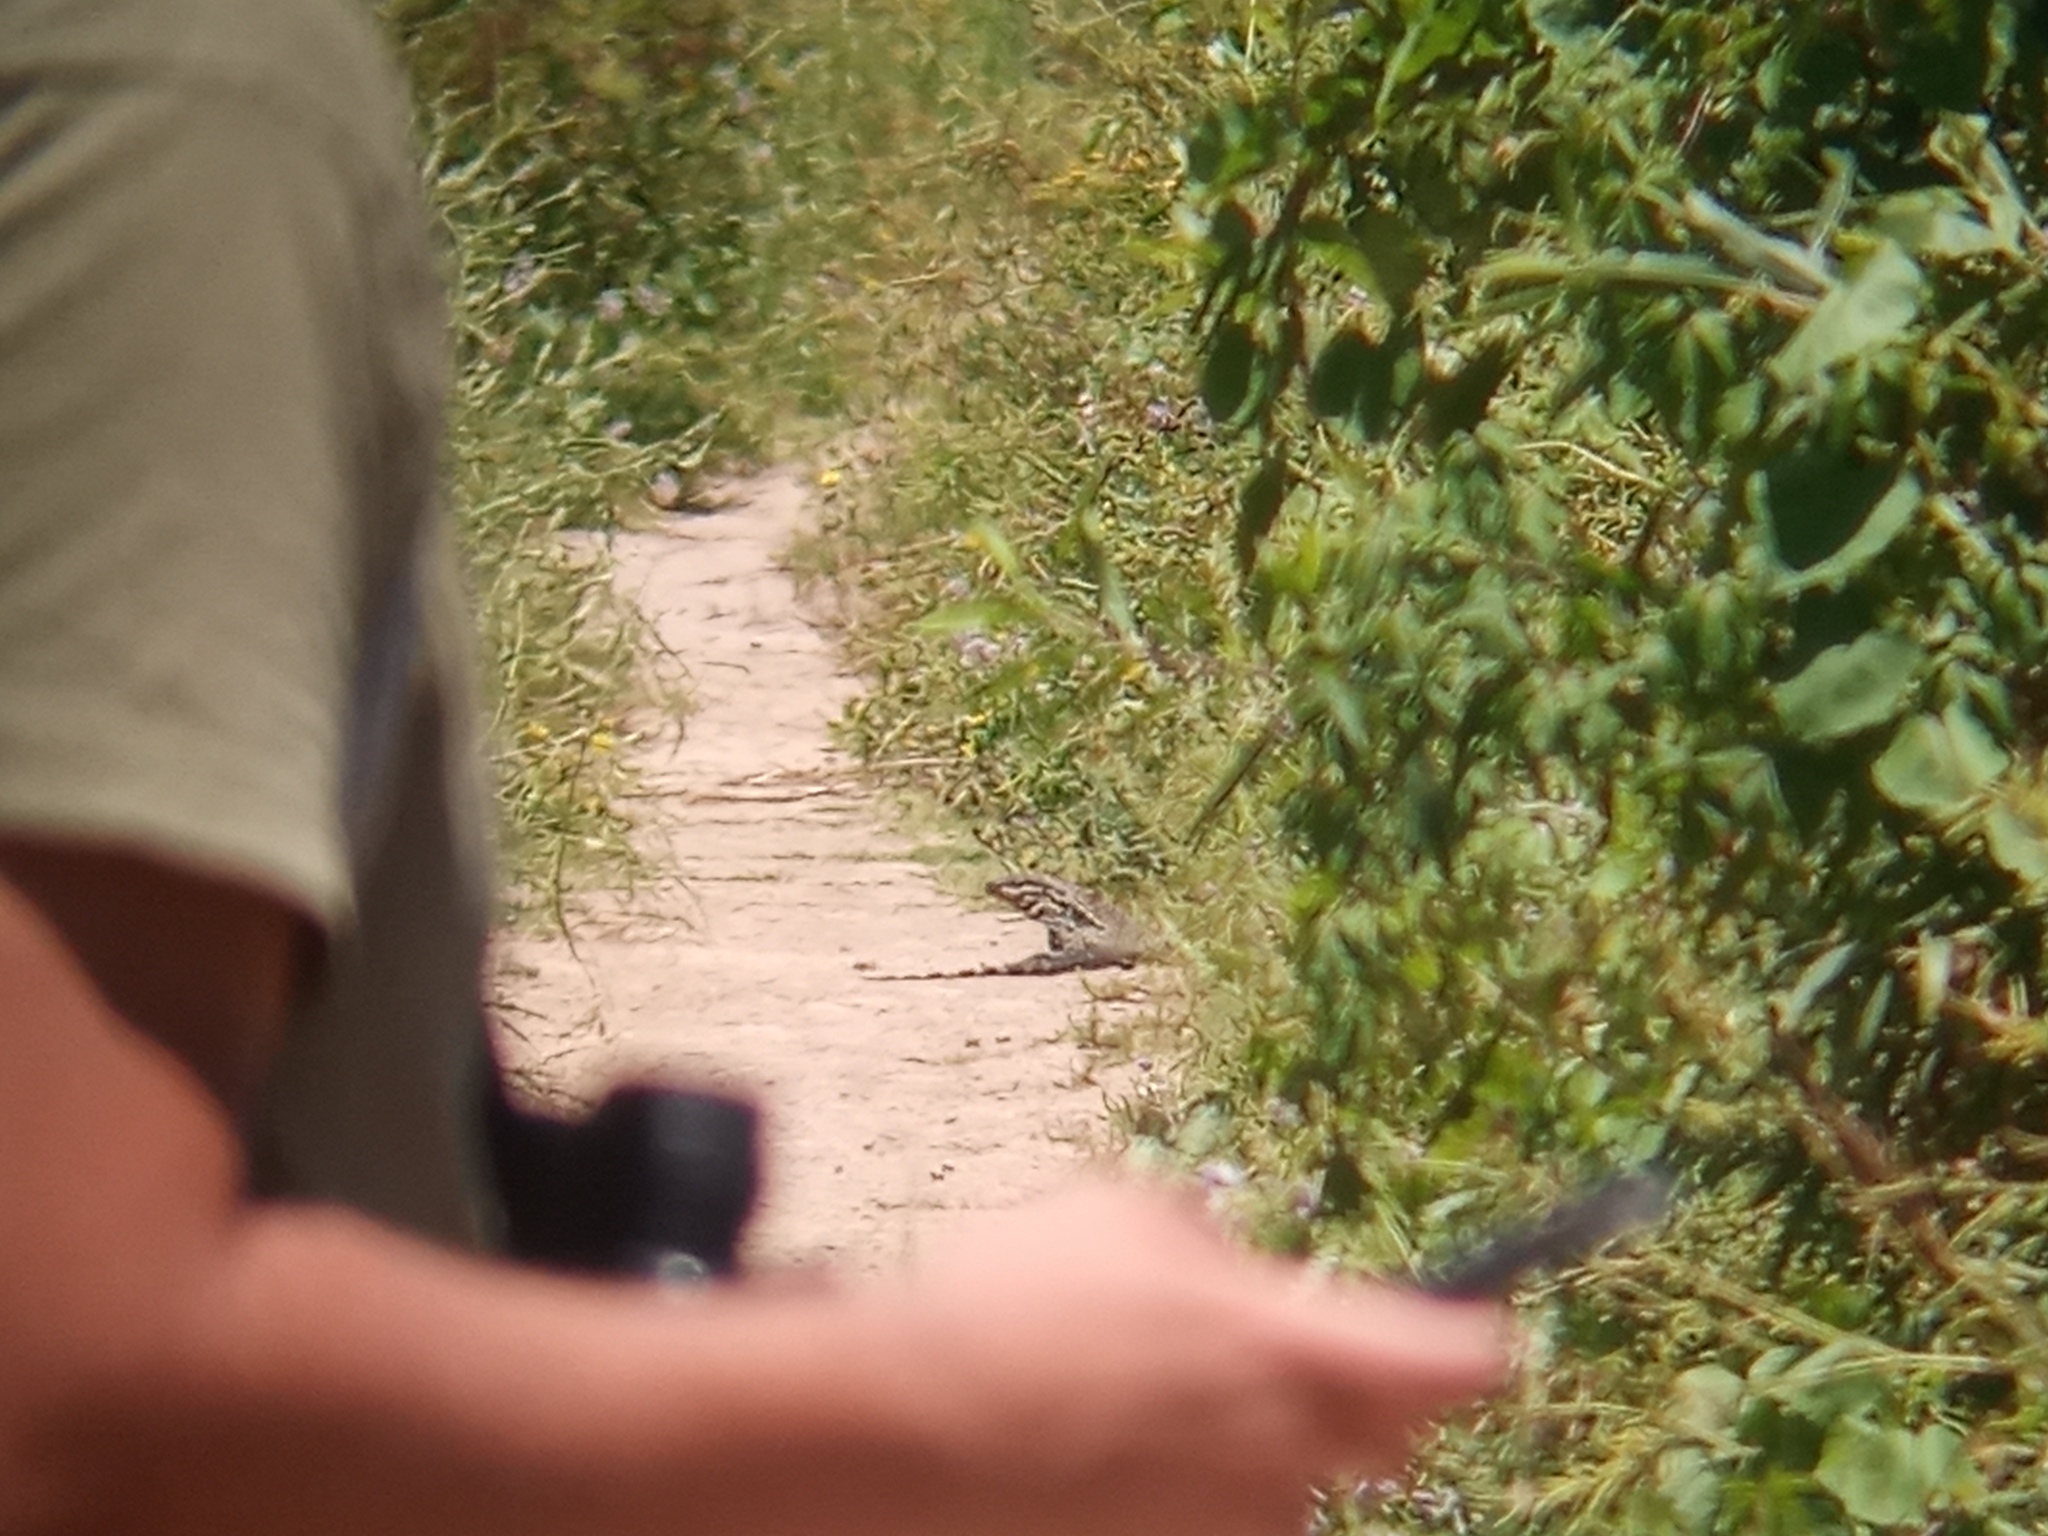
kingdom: Animalia
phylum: Chordata
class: Squamata
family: Teiidae
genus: Salvator
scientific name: Salvator merianae
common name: Argentine black and white tegu
